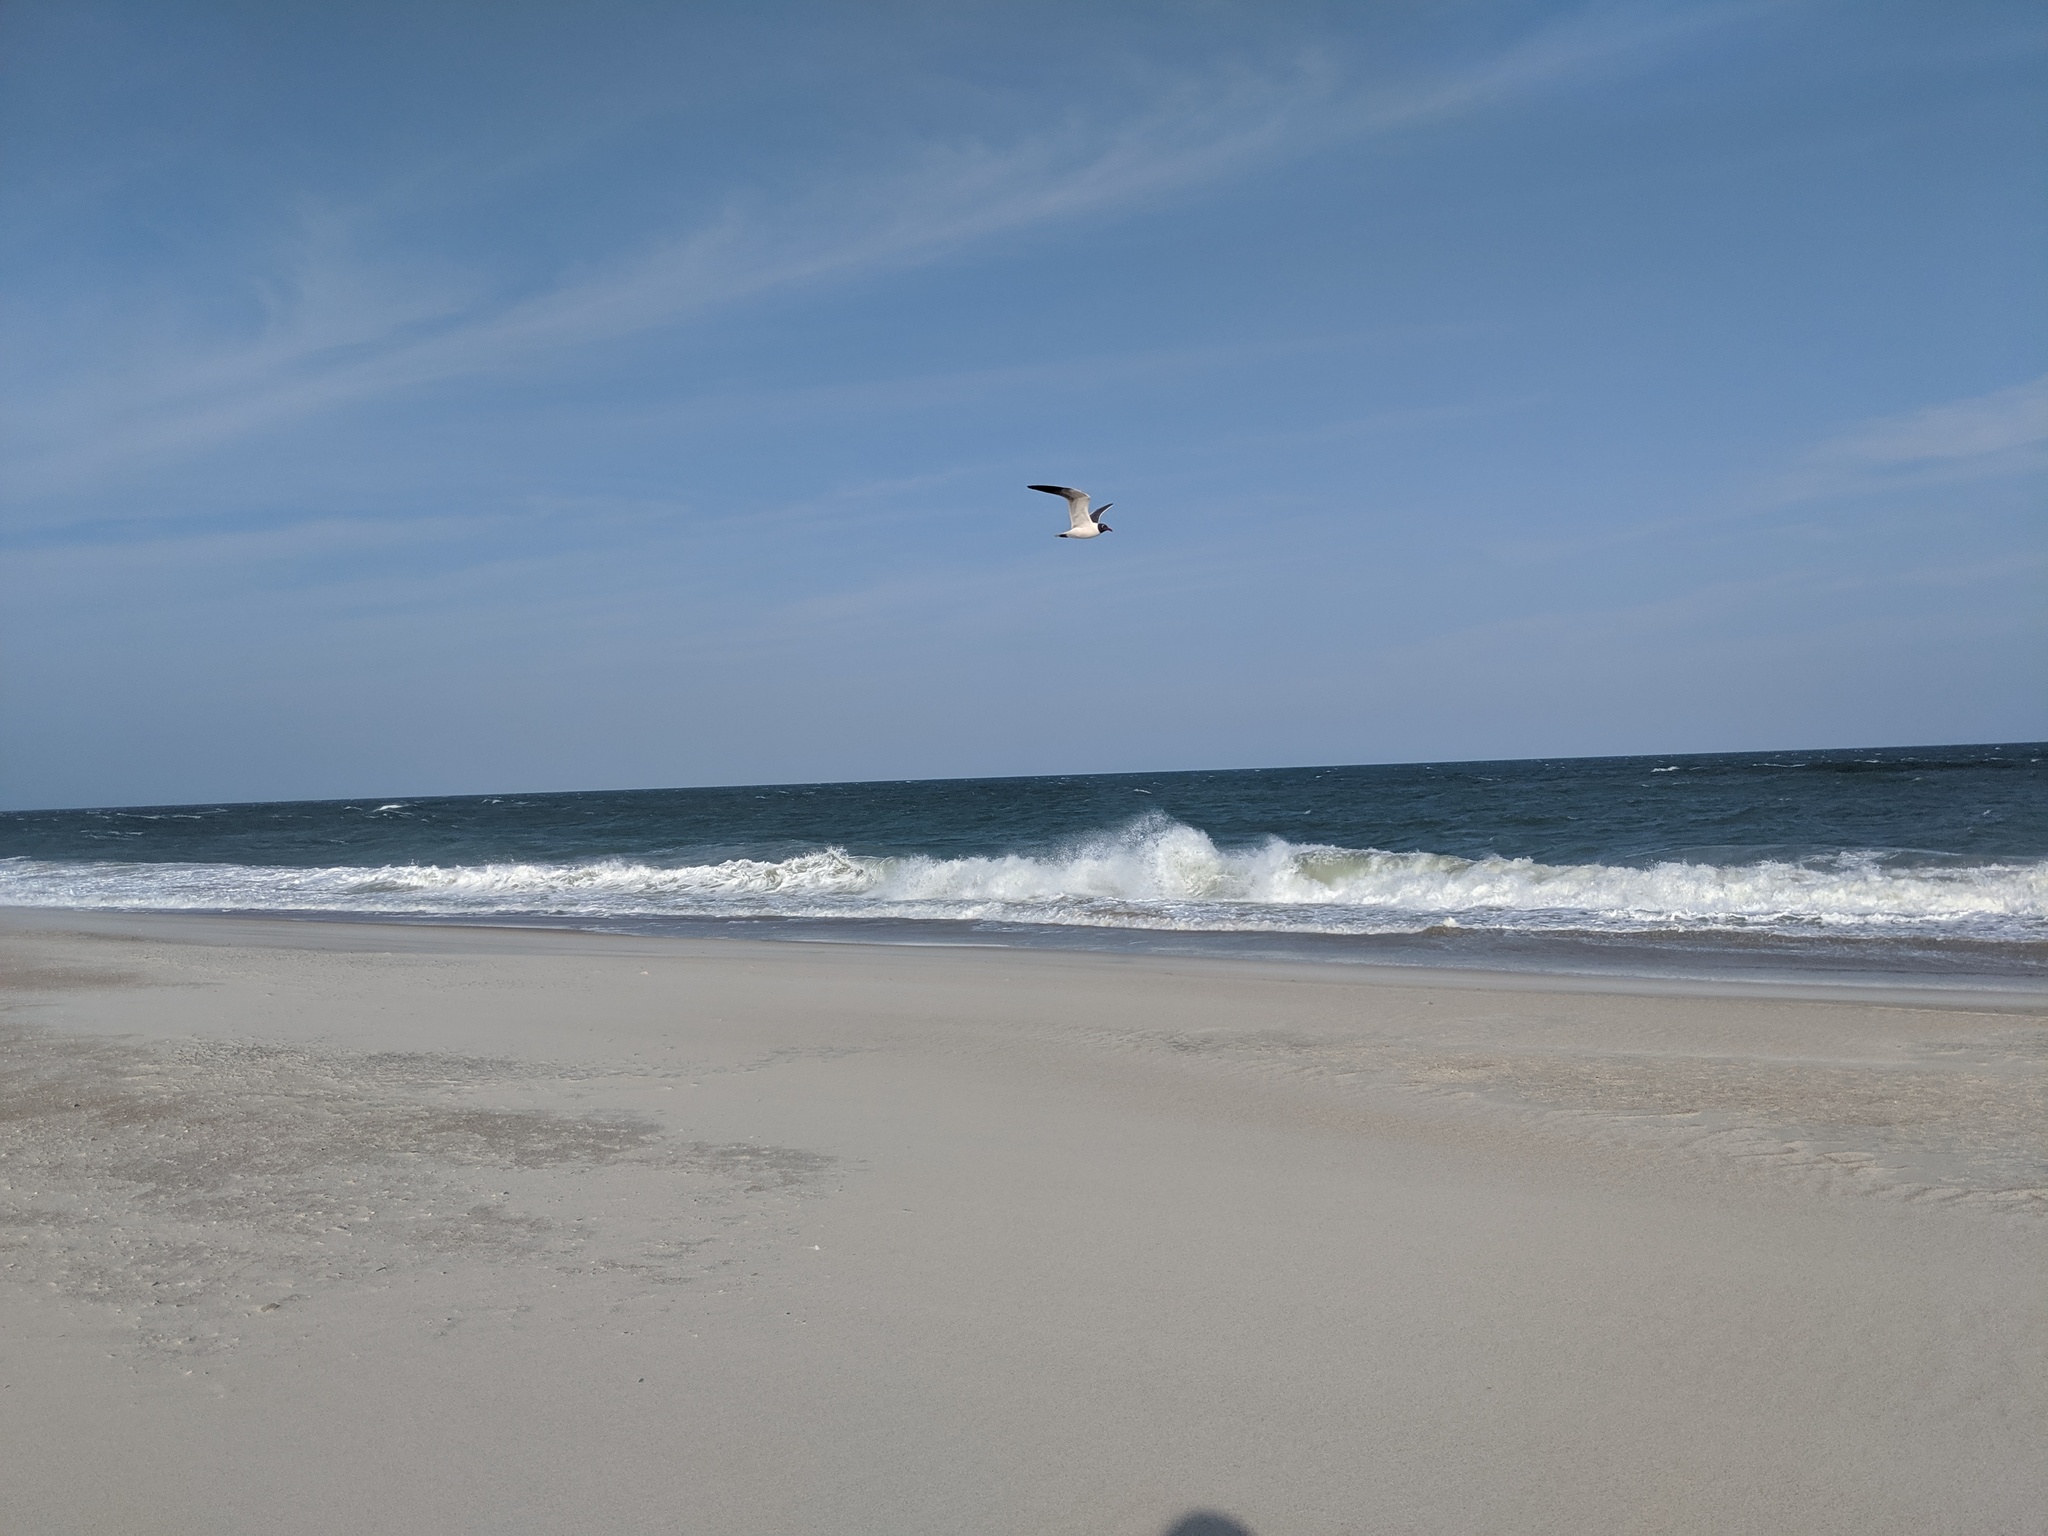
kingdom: Animalia
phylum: Chordata
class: Aves
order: Charadriiformes
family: Laridae
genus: Leucophaeus
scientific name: Leucophaeus atricilla
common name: Laughing gull
